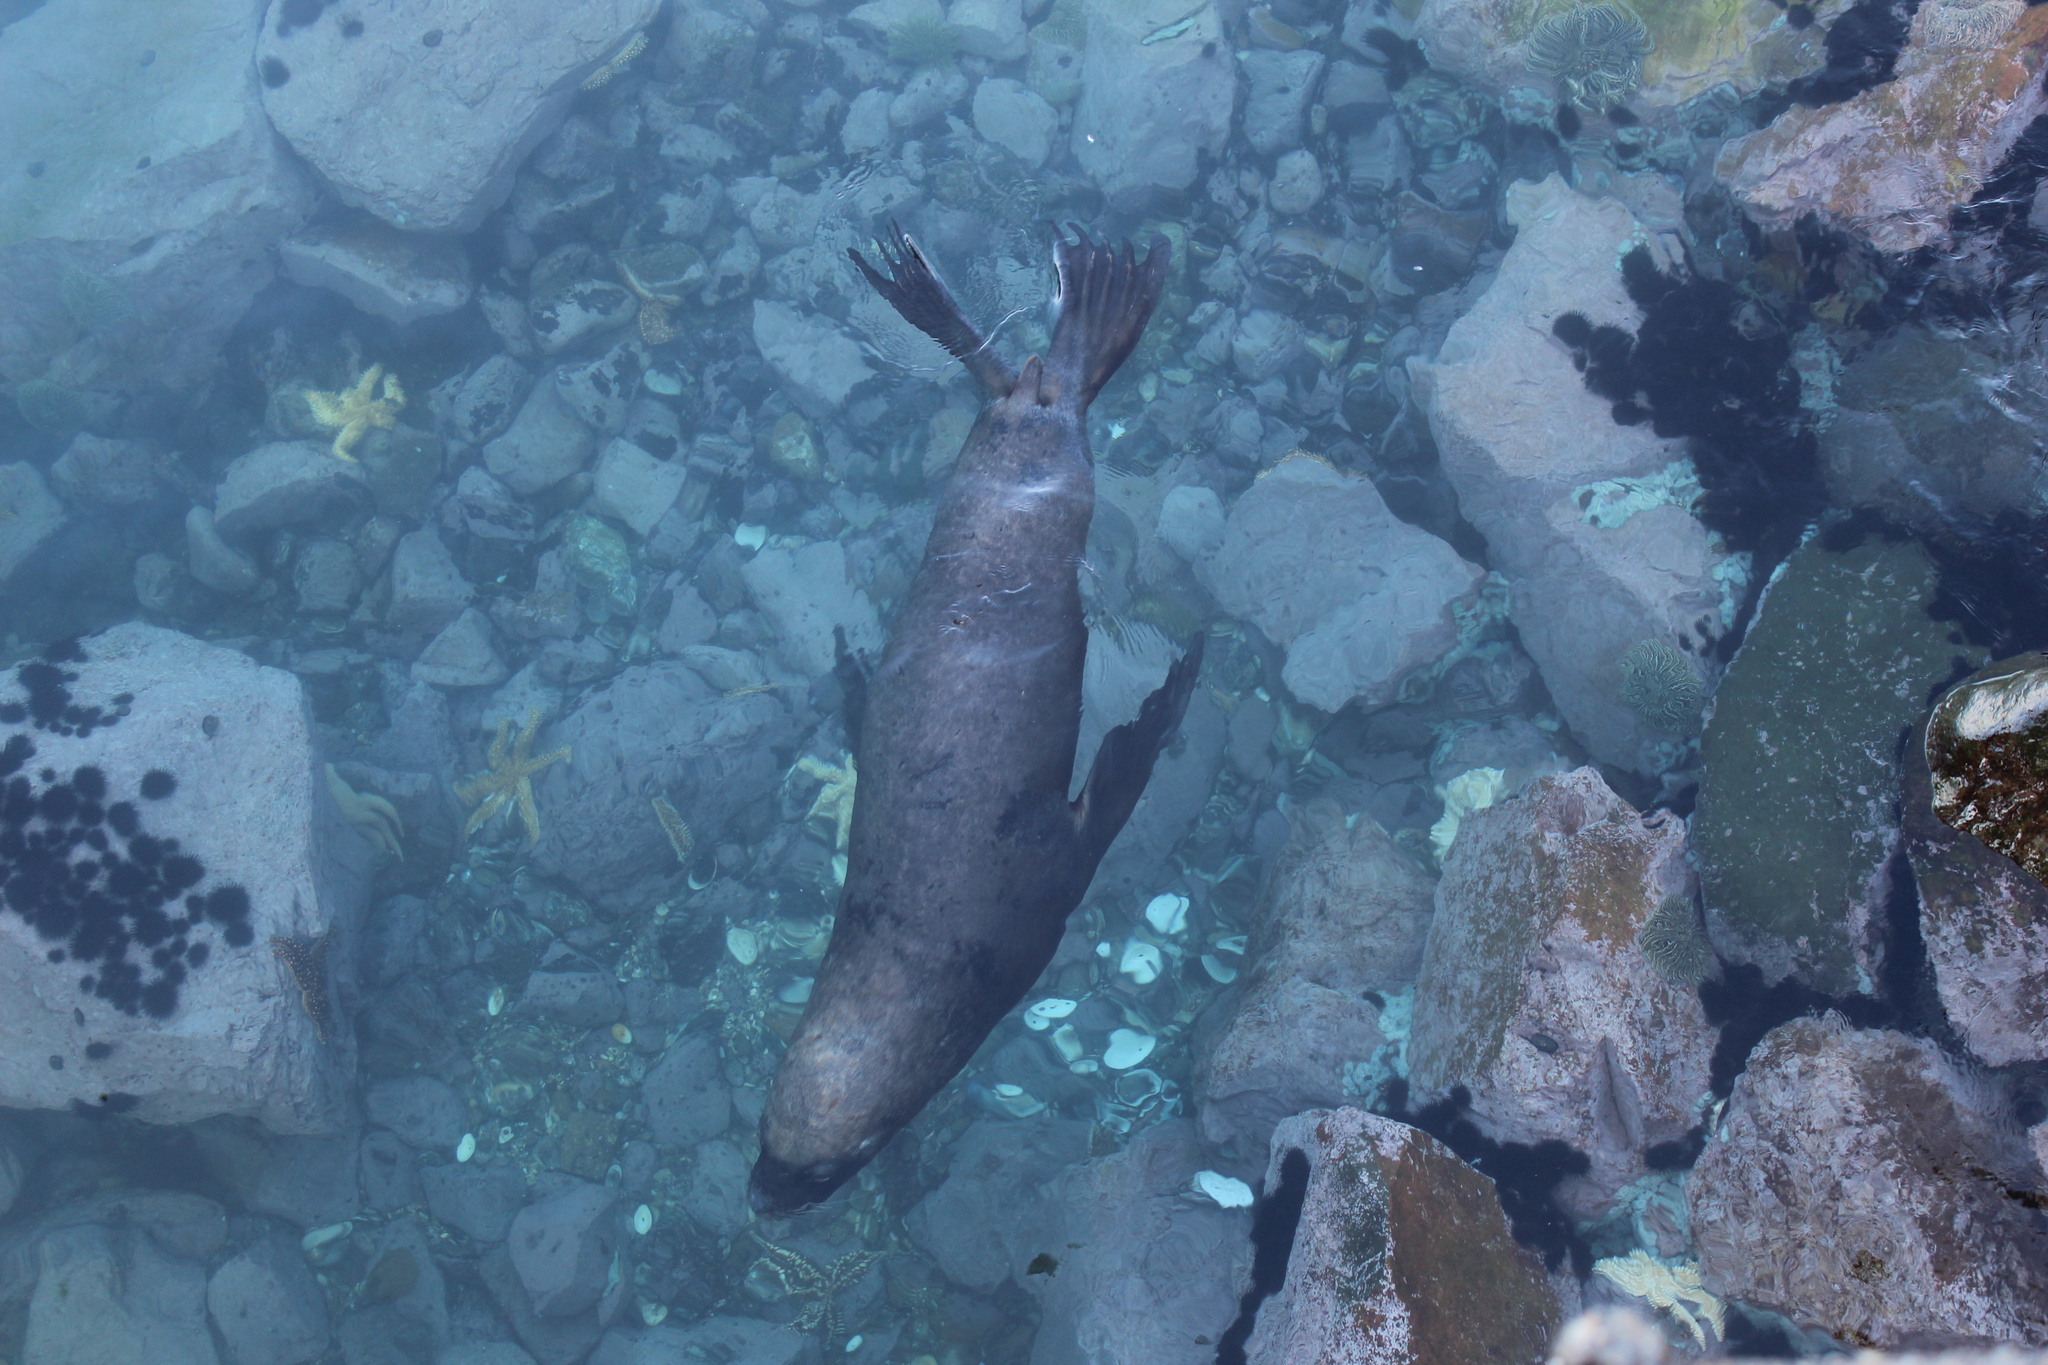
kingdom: Animalia
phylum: Chordata
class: Mammalia
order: Carnivora
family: Otariidae
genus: Otaria
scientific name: Otaria byronia
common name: South american sea lion
